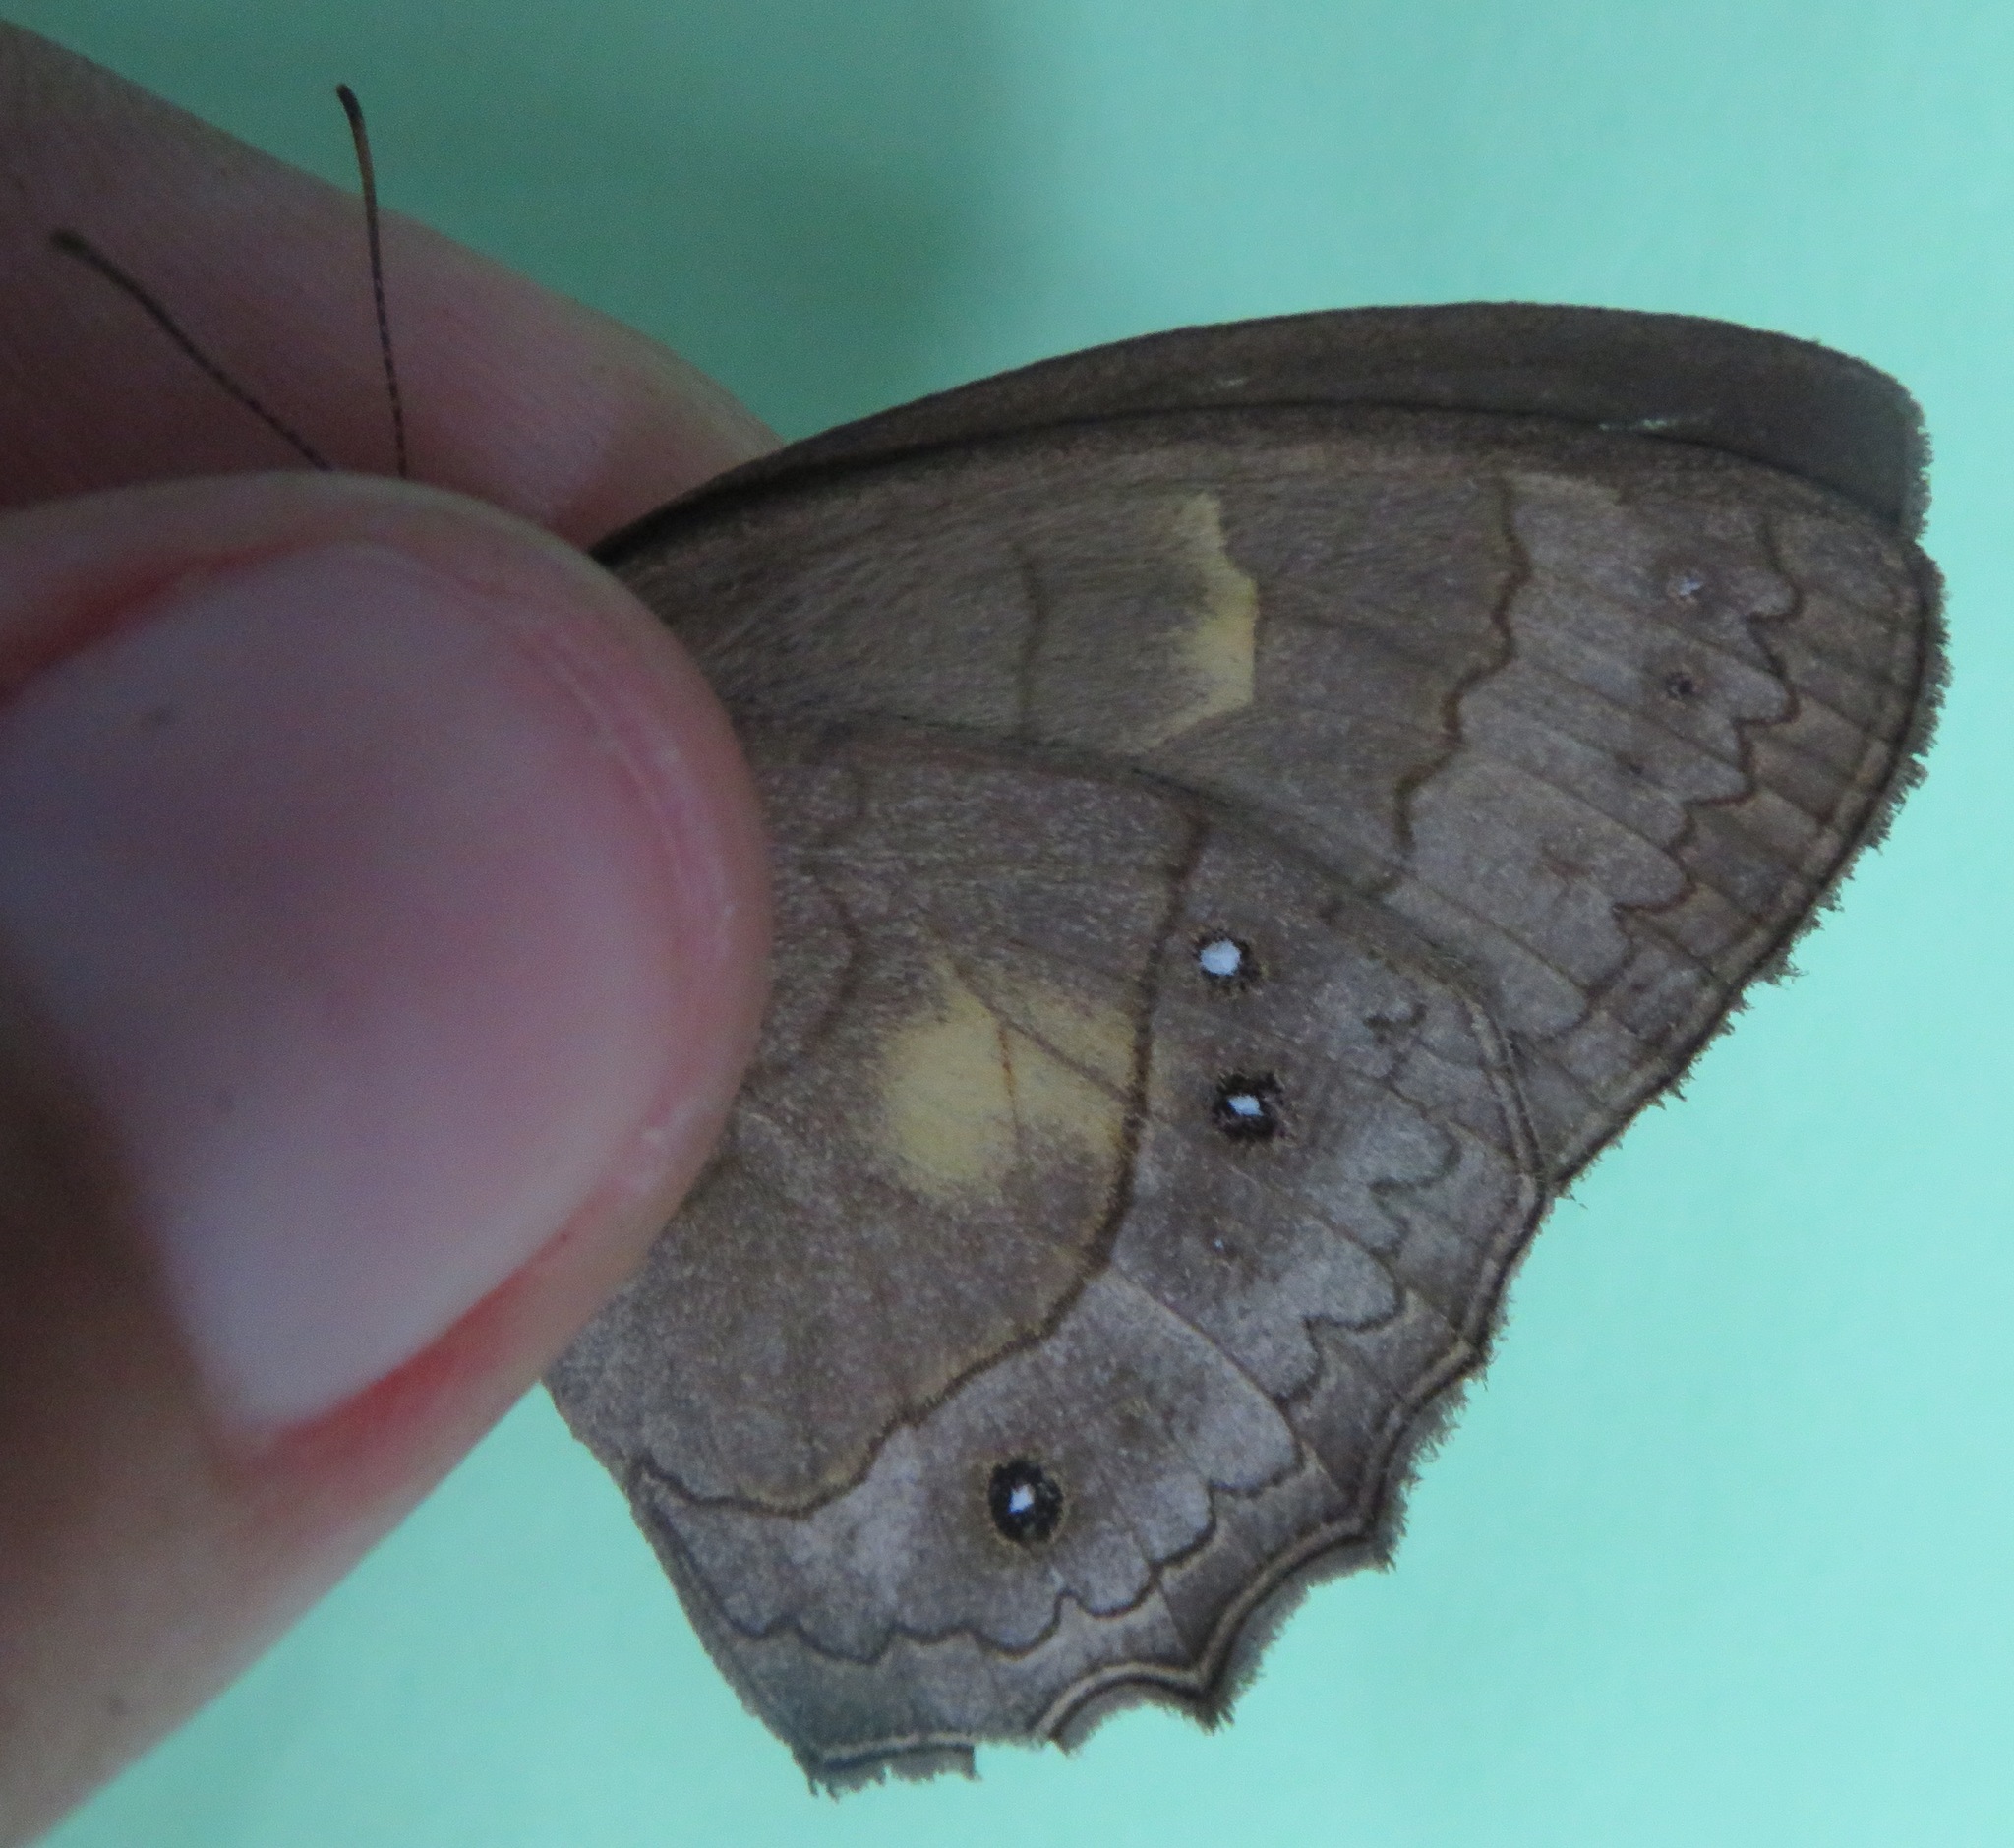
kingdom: Animalia
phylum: Arthropoda
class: Insecta
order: Lepidoptera
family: Nymphalidae
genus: Taygetina
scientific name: Taygetina kerea
